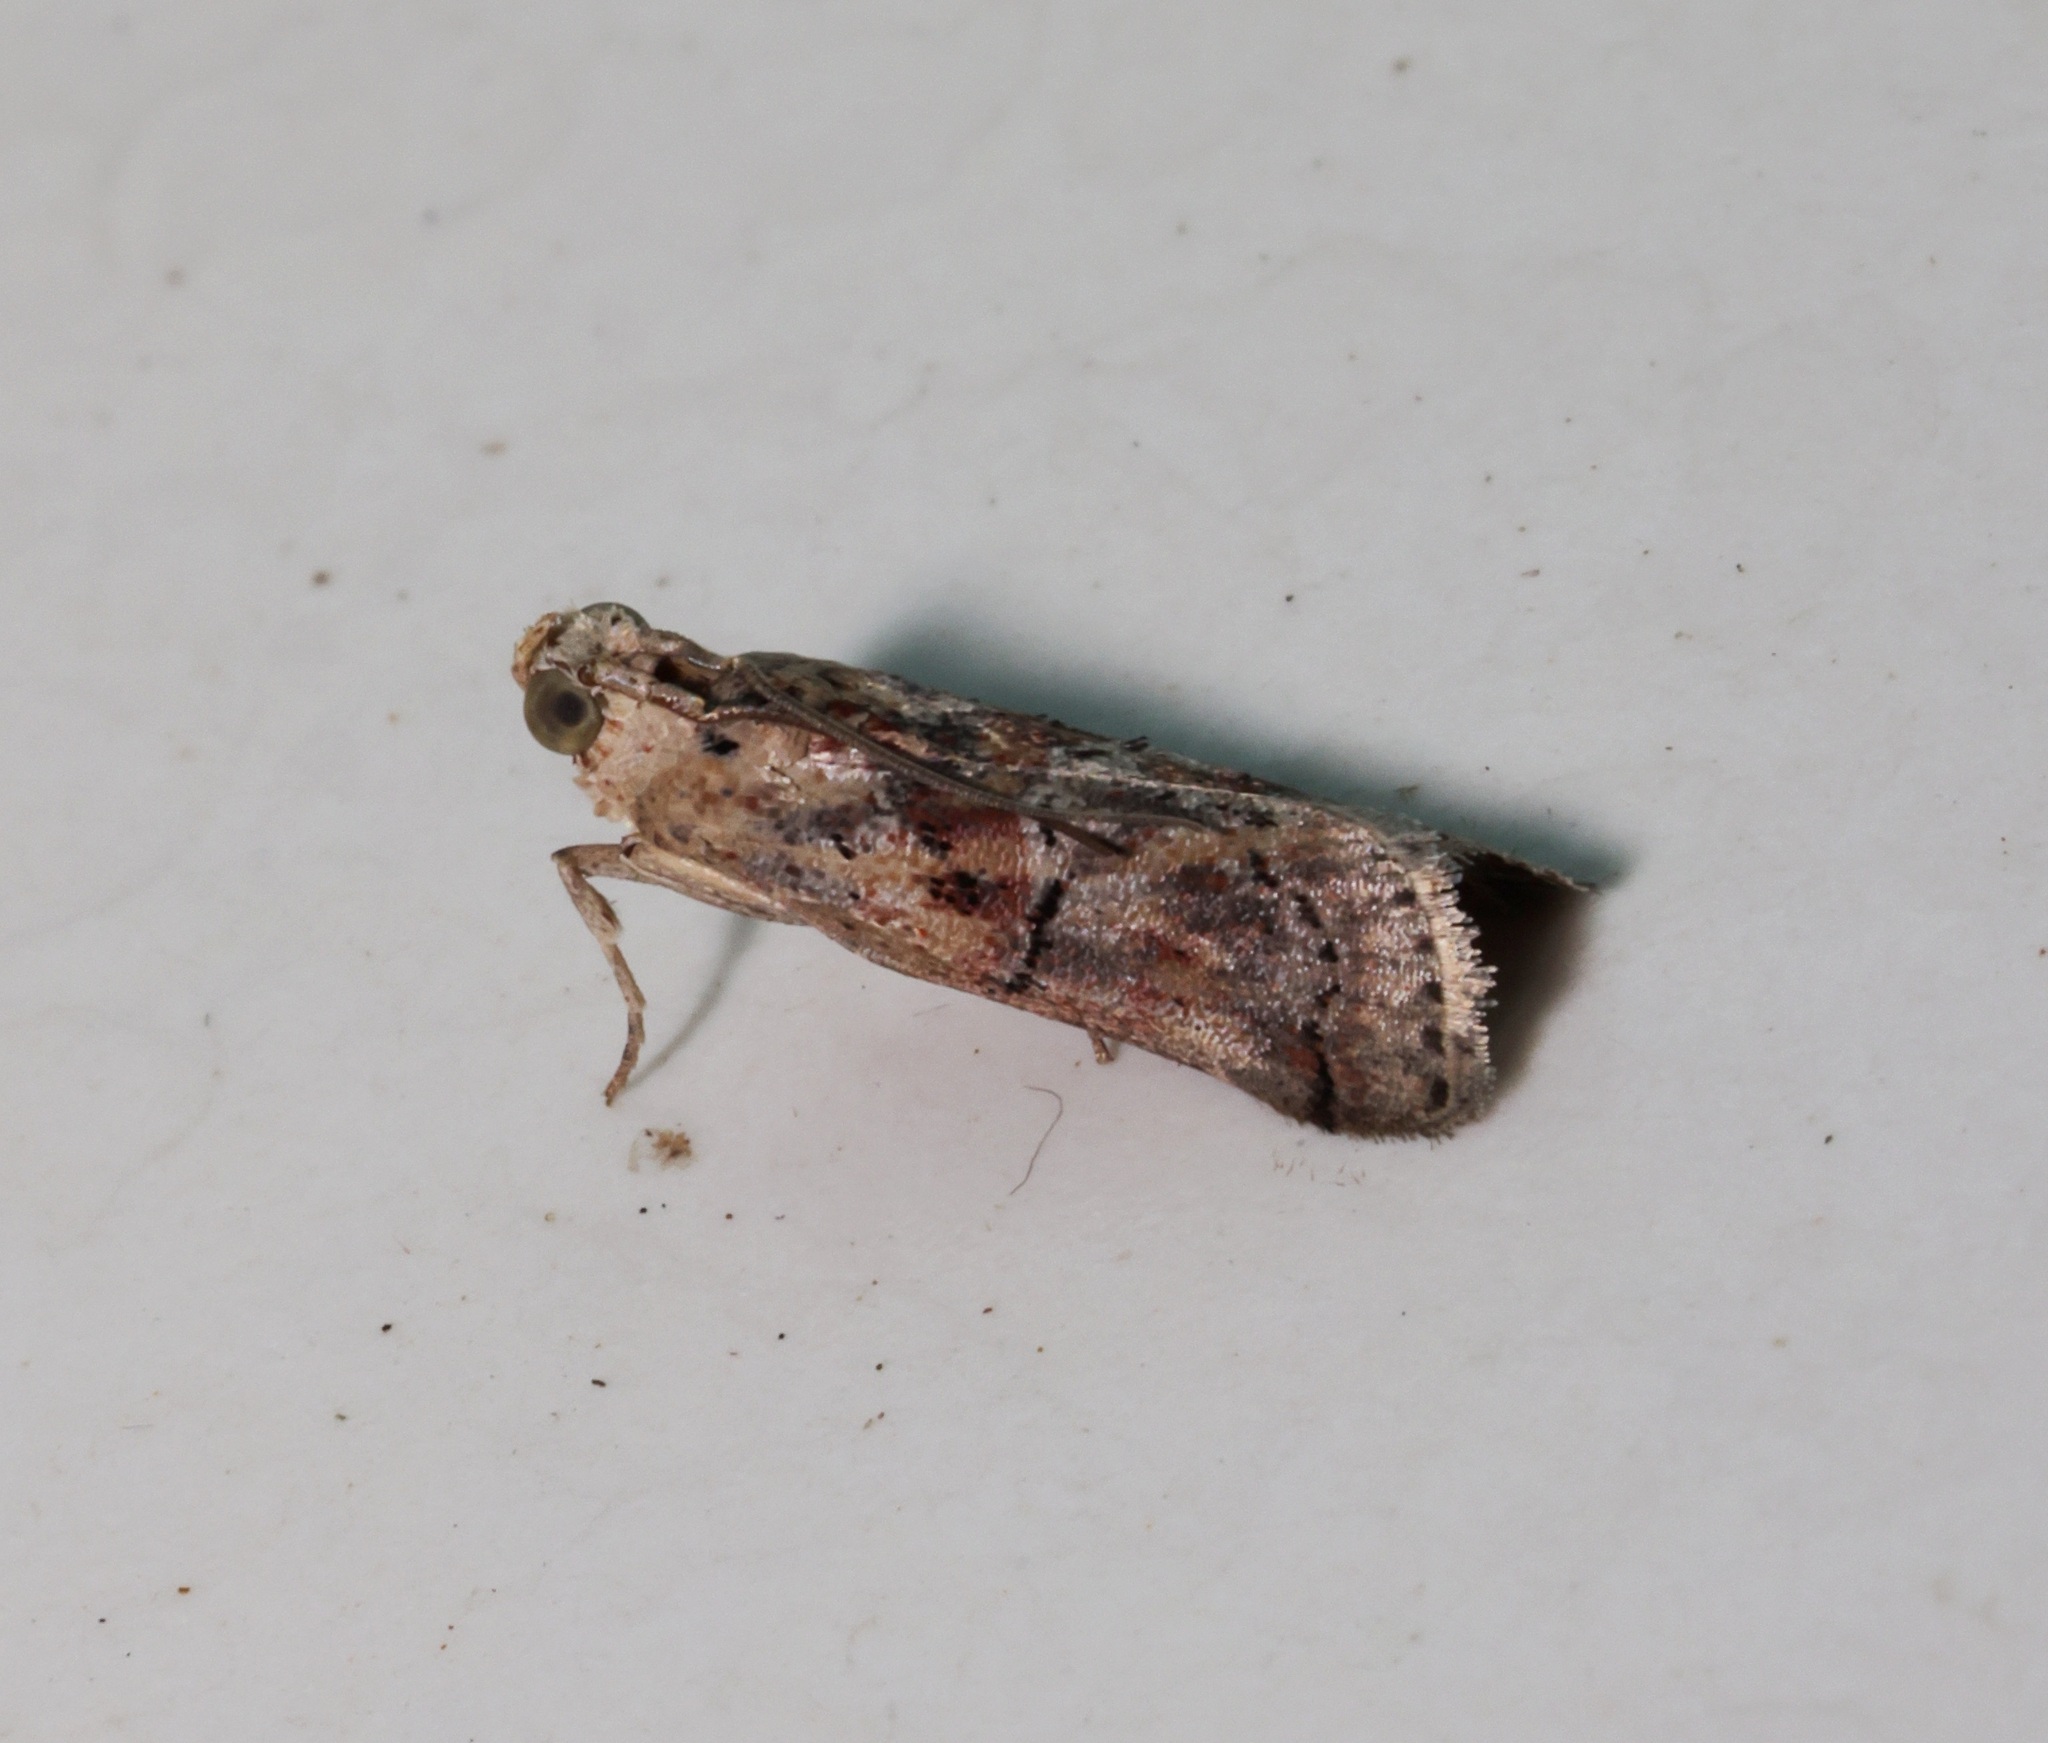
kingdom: Animalia
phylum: Arthropoda
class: Insecta
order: Lepidoptera
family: Pyralidae
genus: Nephopterix
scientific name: Nephopterix ochribasalis
